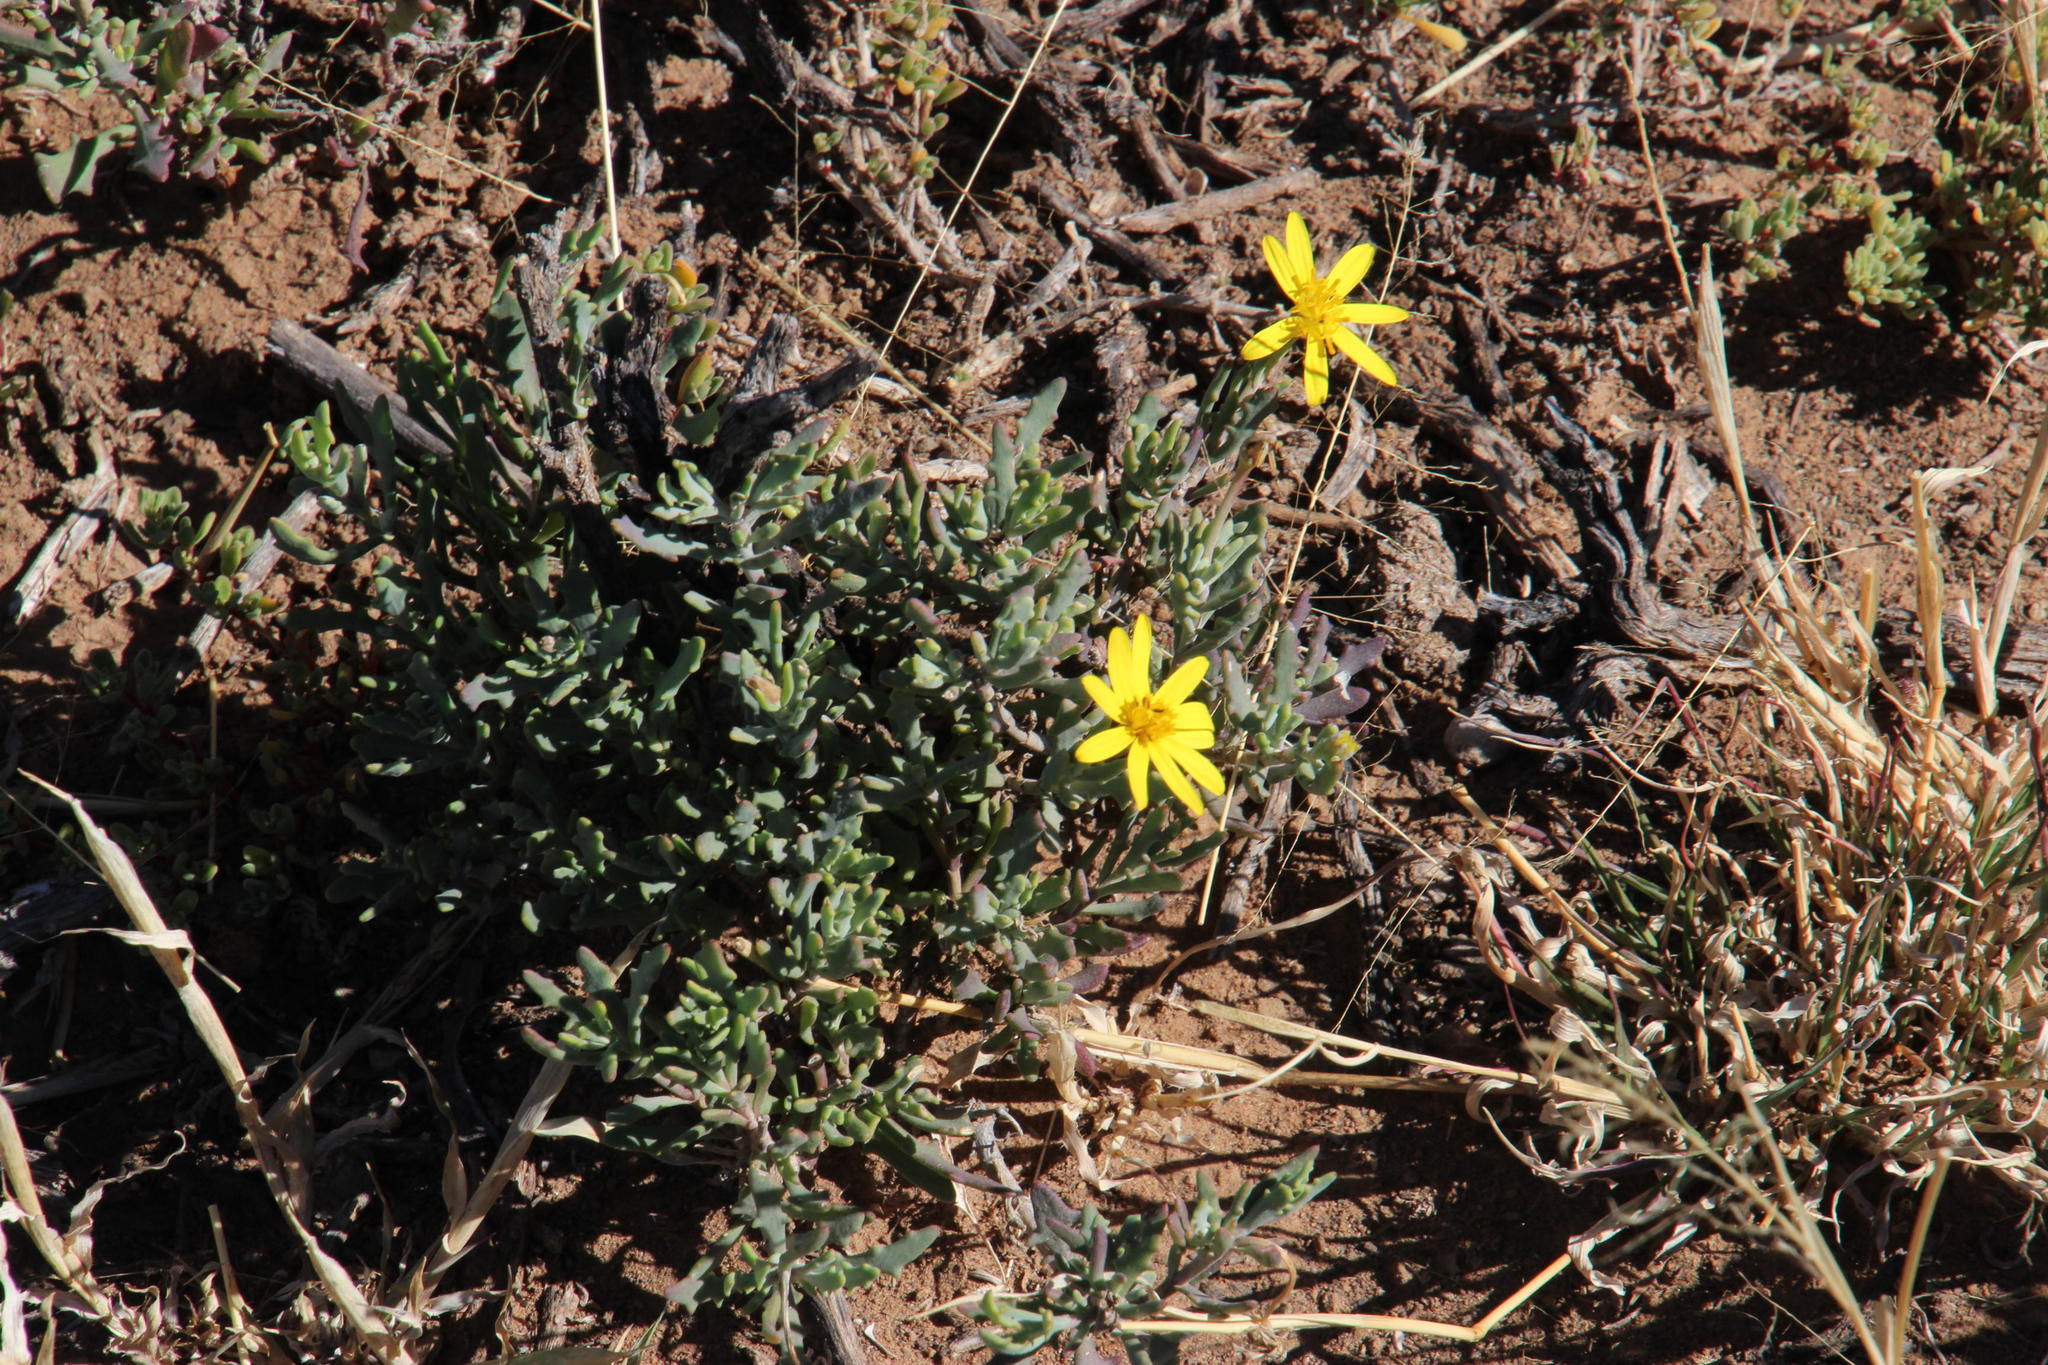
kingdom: Plantae
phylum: Tracheophyta
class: Magnoliopsida
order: Asterales
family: Asteraceae
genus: Osteospermum
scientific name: Osteospermum sinuatum
